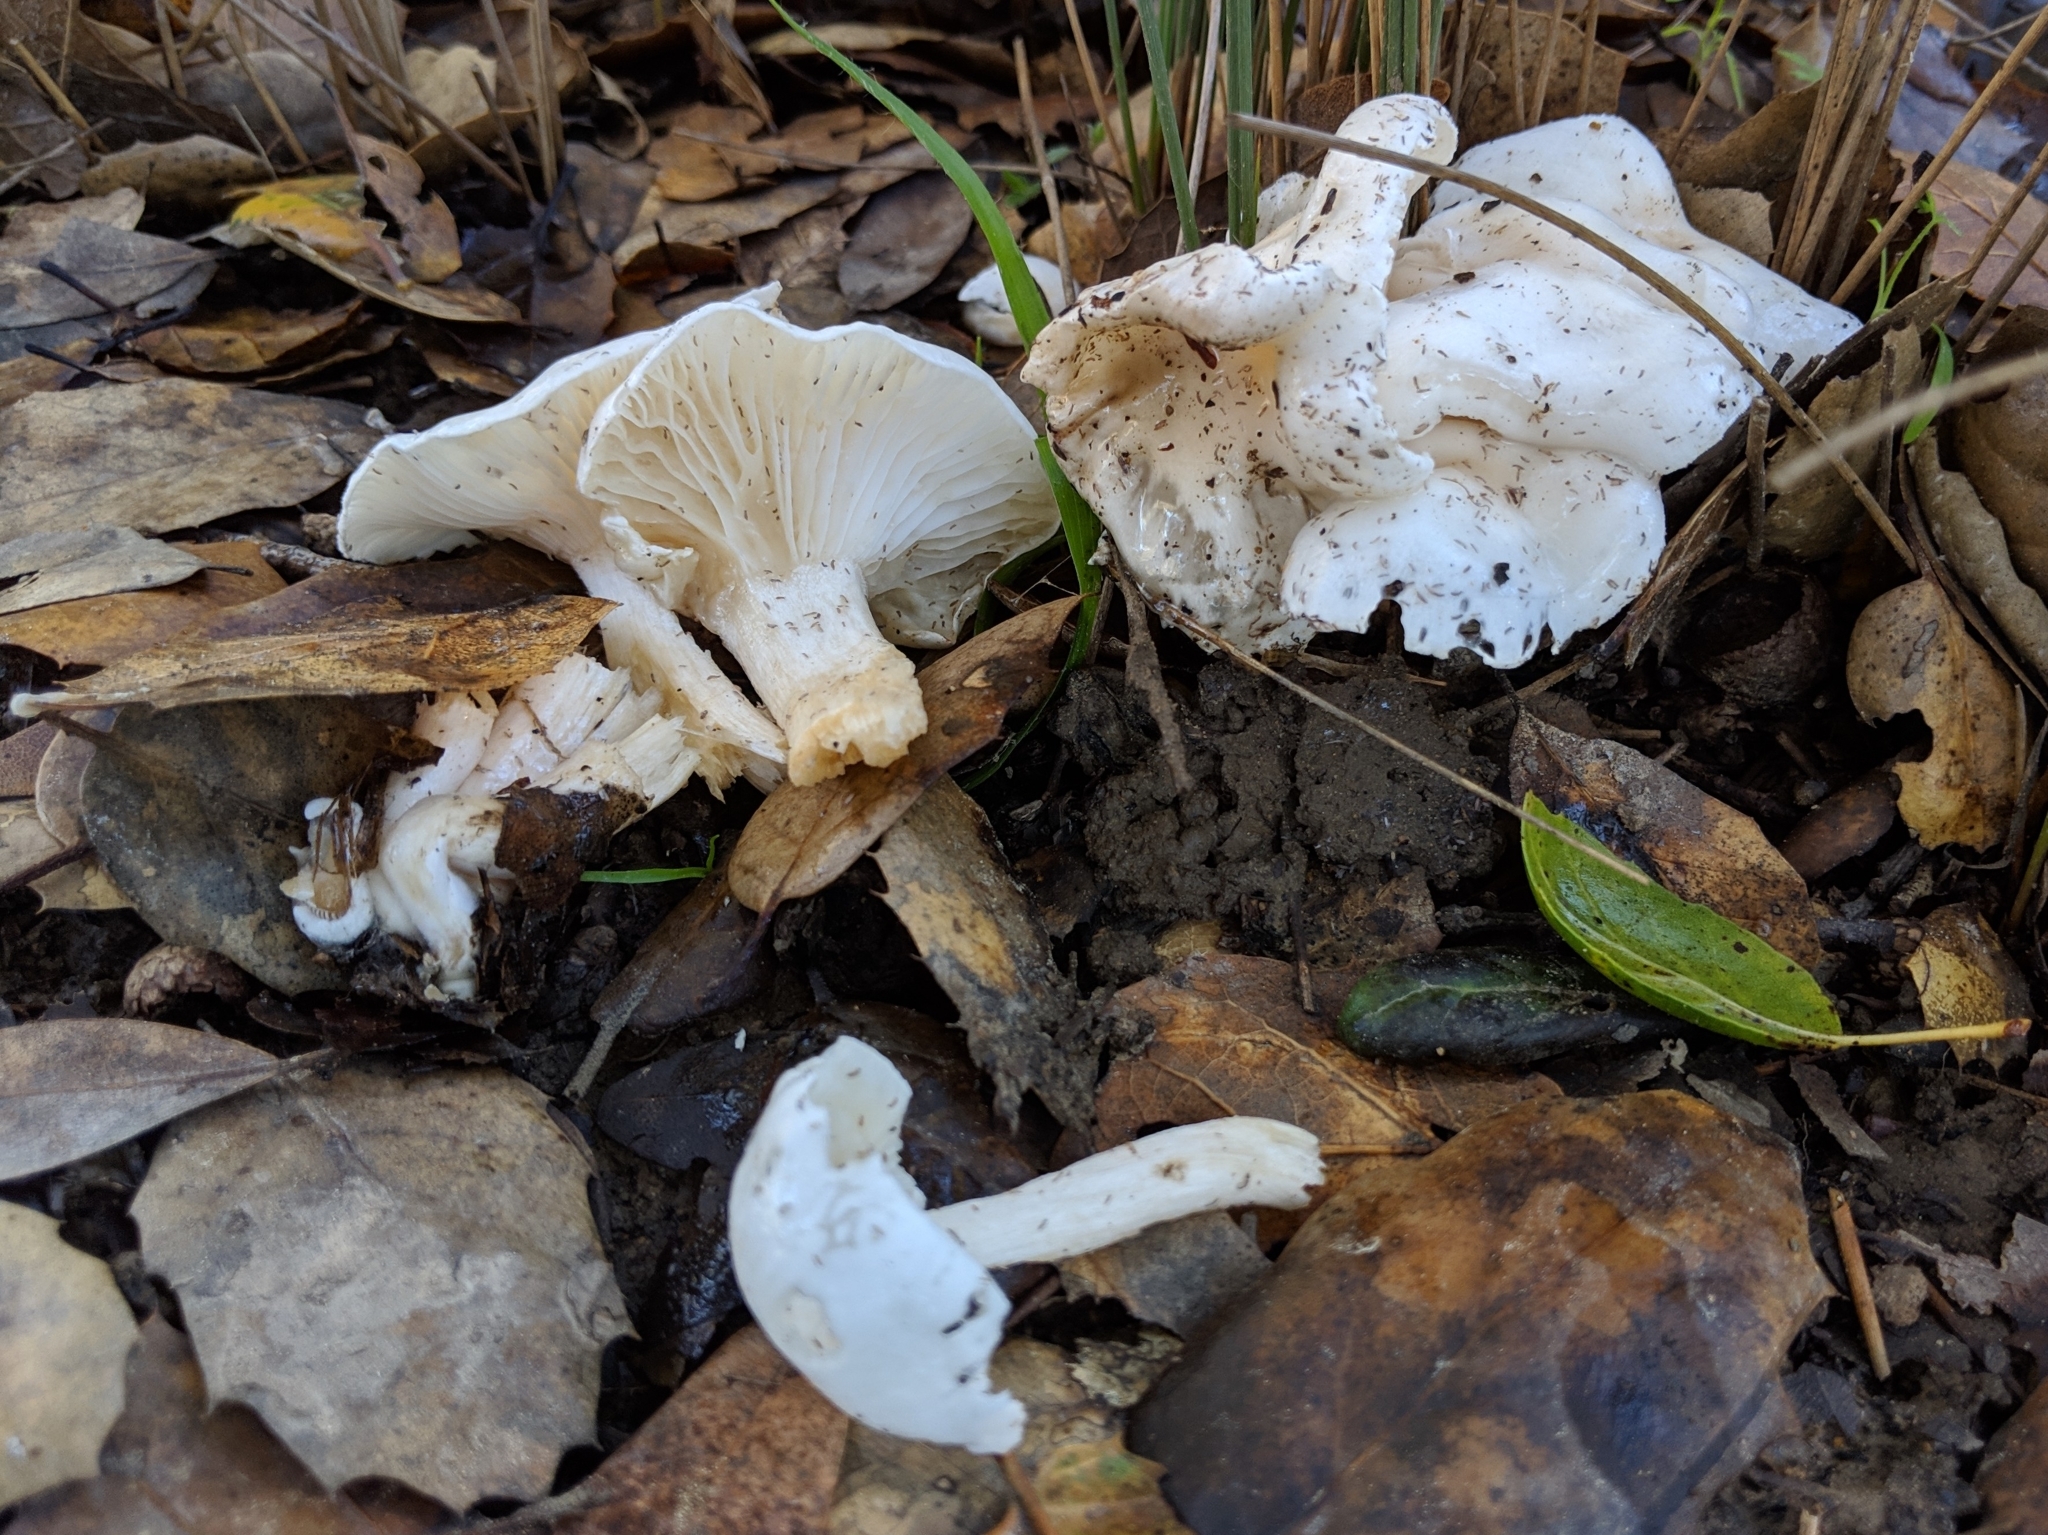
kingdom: Fungi
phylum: Basidiomycota
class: Agaricomycetes
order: Agaricales
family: Hygrophoraceae
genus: Hygrophorus
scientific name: Hygrophorus eburneus
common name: Ivory wax-cap
